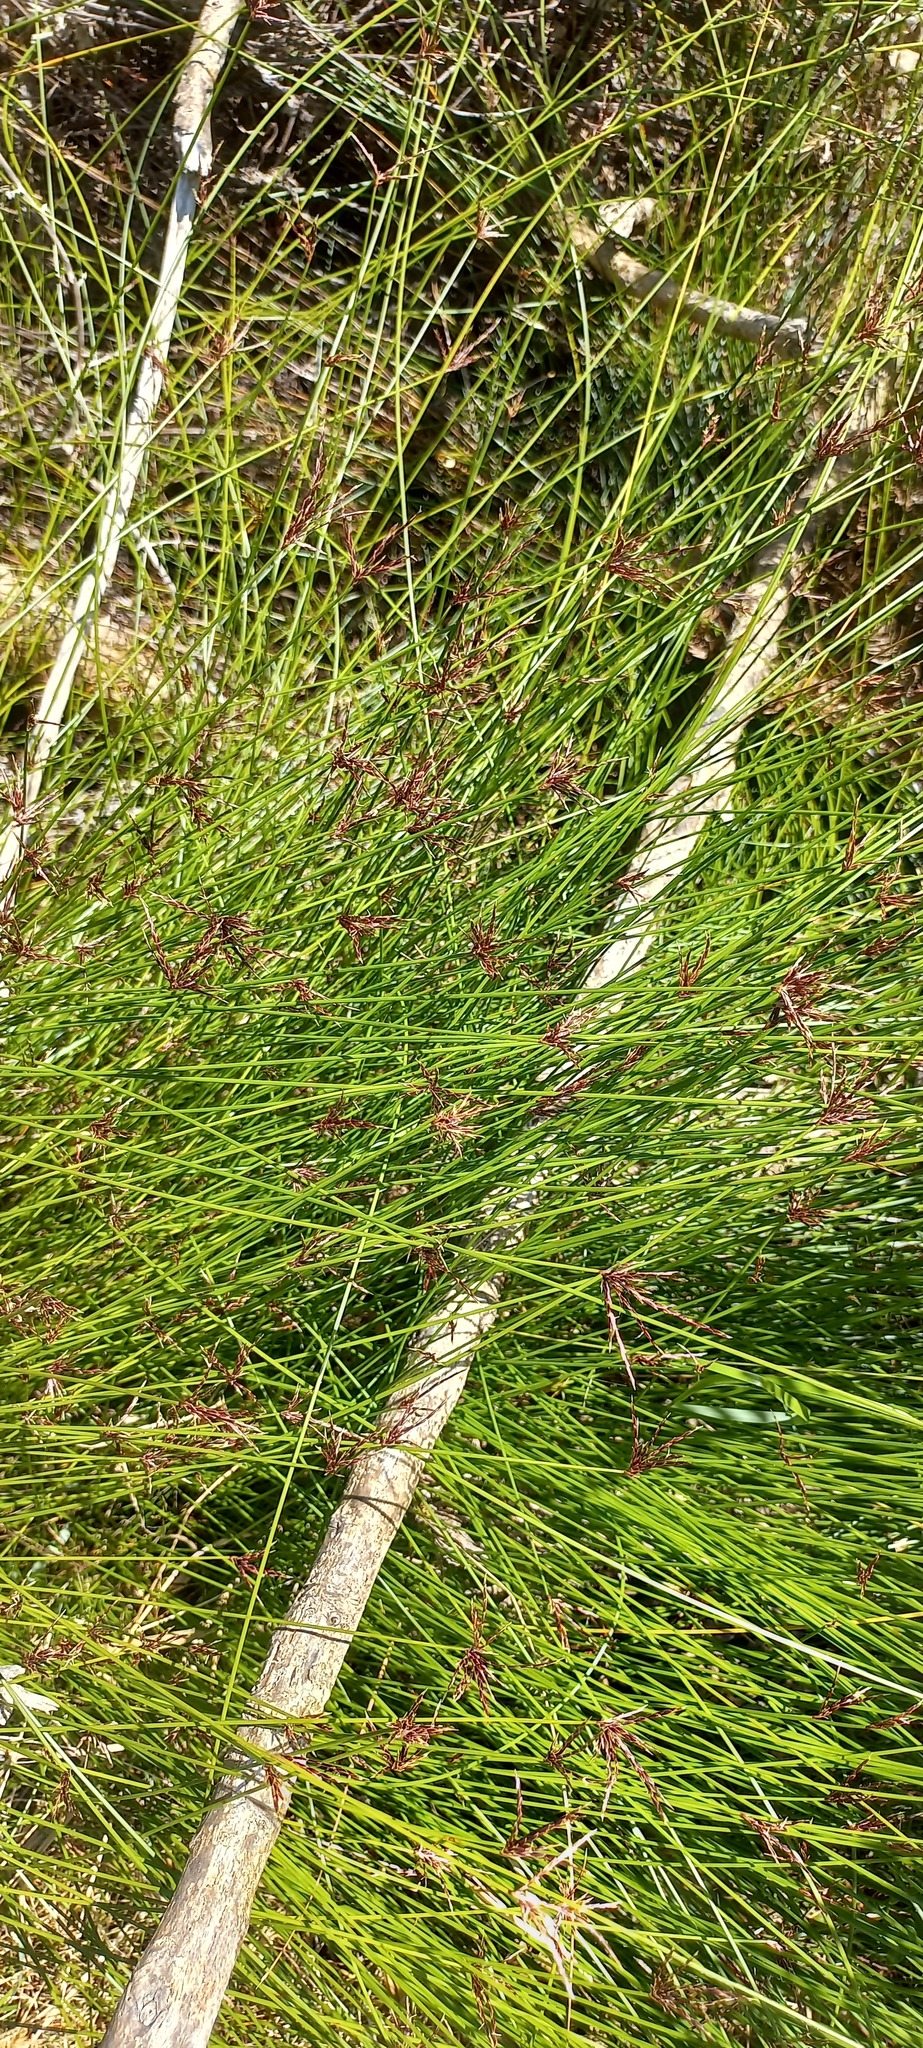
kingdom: Plantae
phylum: Tracheophyta
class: Liliopsida
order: Poales
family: Cyperaceae
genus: Ficinia
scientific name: Ficinia distans
